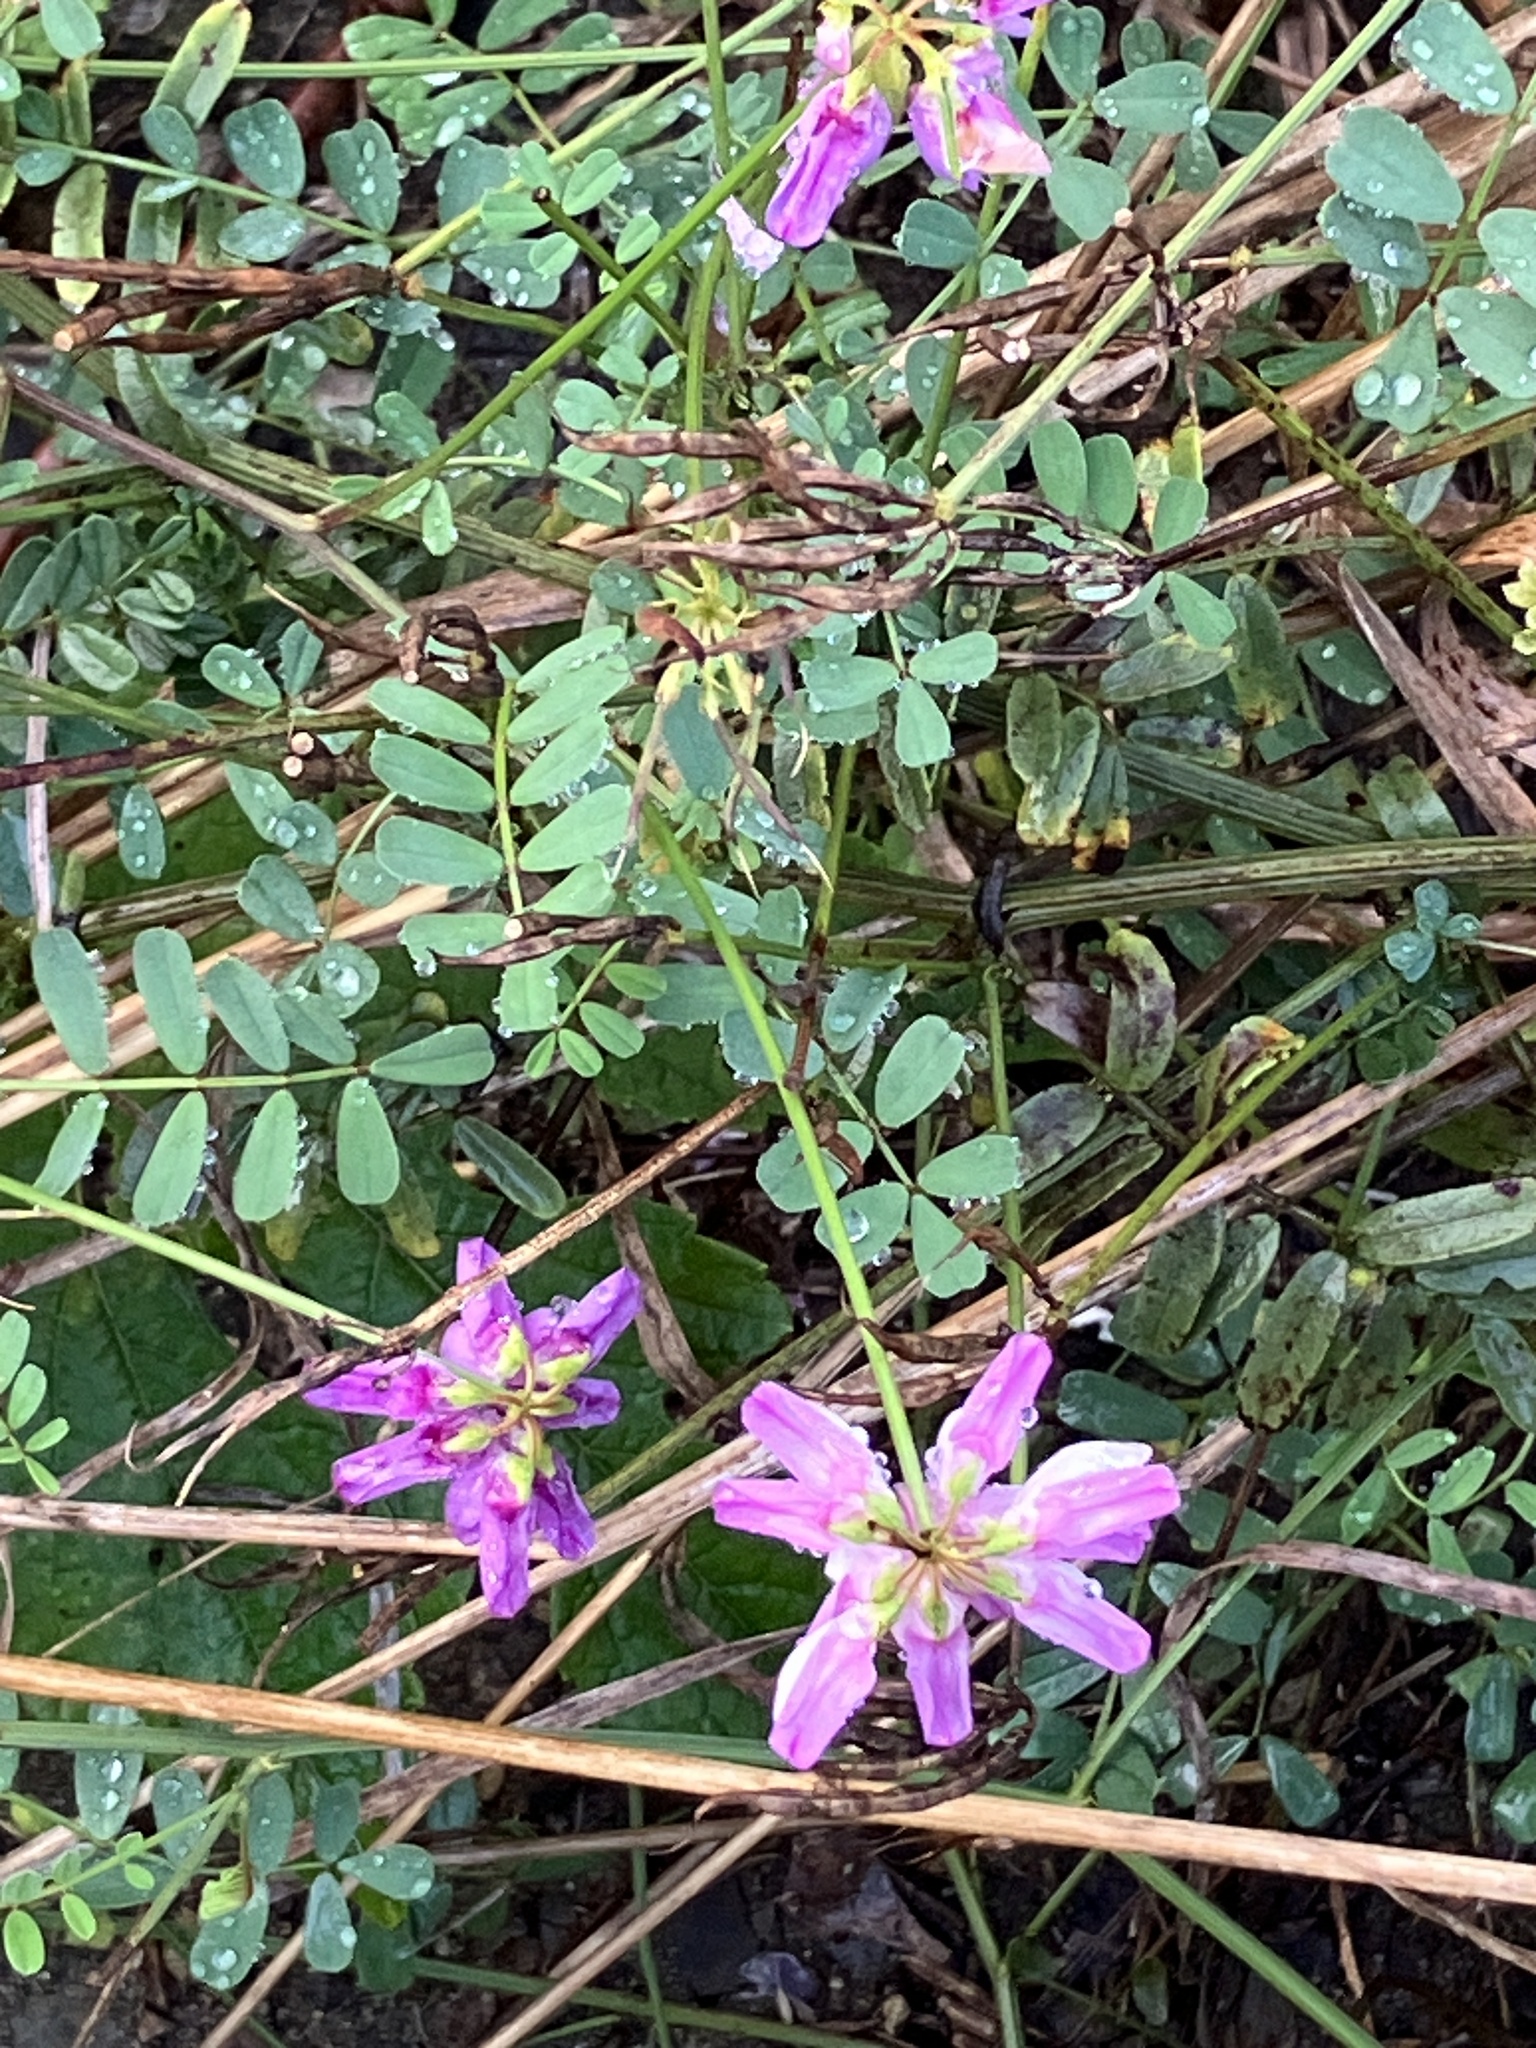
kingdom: Plantae
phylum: Tracheophyta
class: Magnoliopsida
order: Fabales
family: Fabaceae
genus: Coronilla
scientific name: Coronilla varia
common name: Crownvetch
